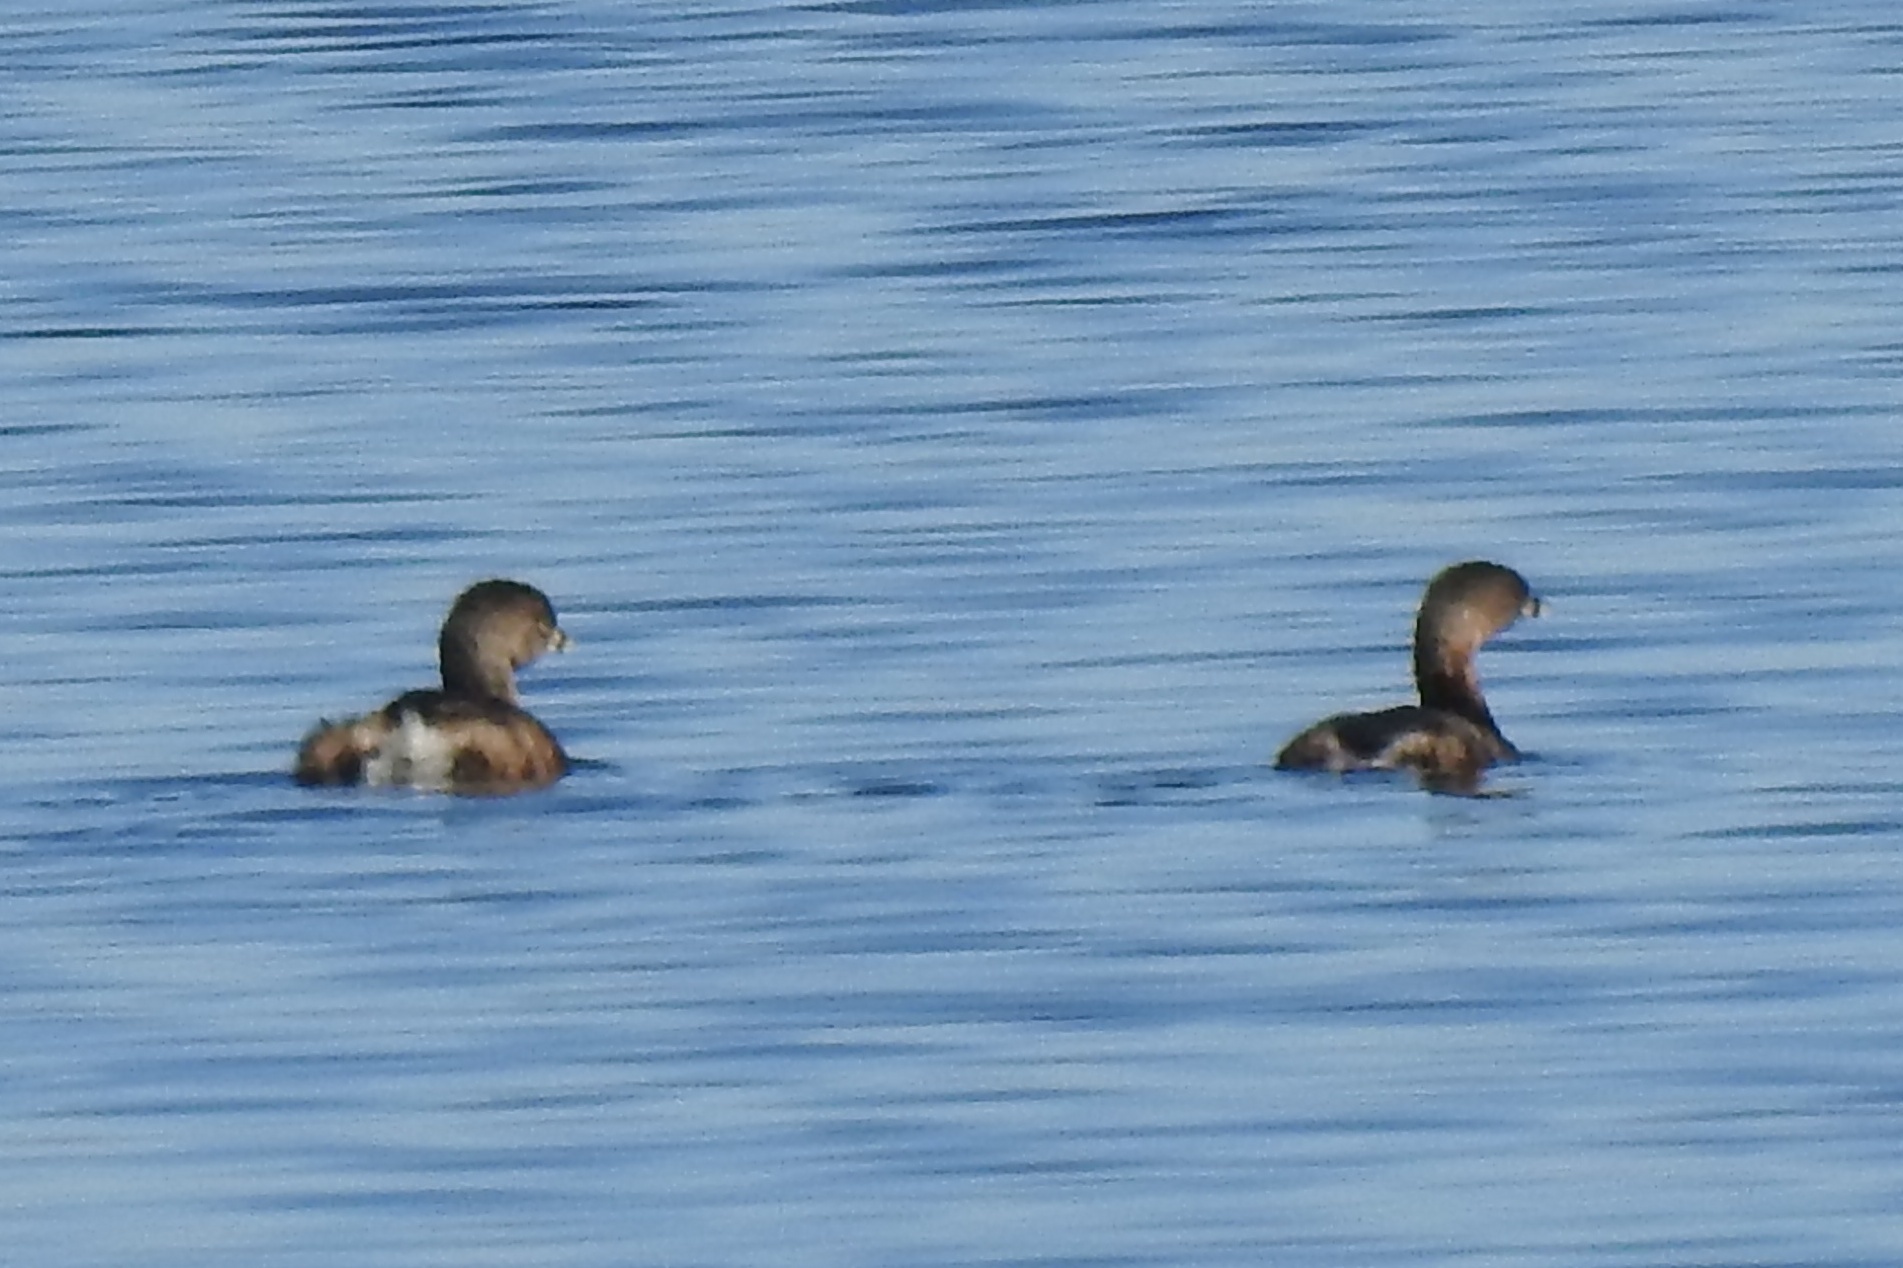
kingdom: Animalia
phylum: Chordata
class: Aves
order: Podicipediformes
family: Podicipedidae
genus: Podilymbus
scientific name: Podilymbus podiceps
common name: Pied-billed grebe
